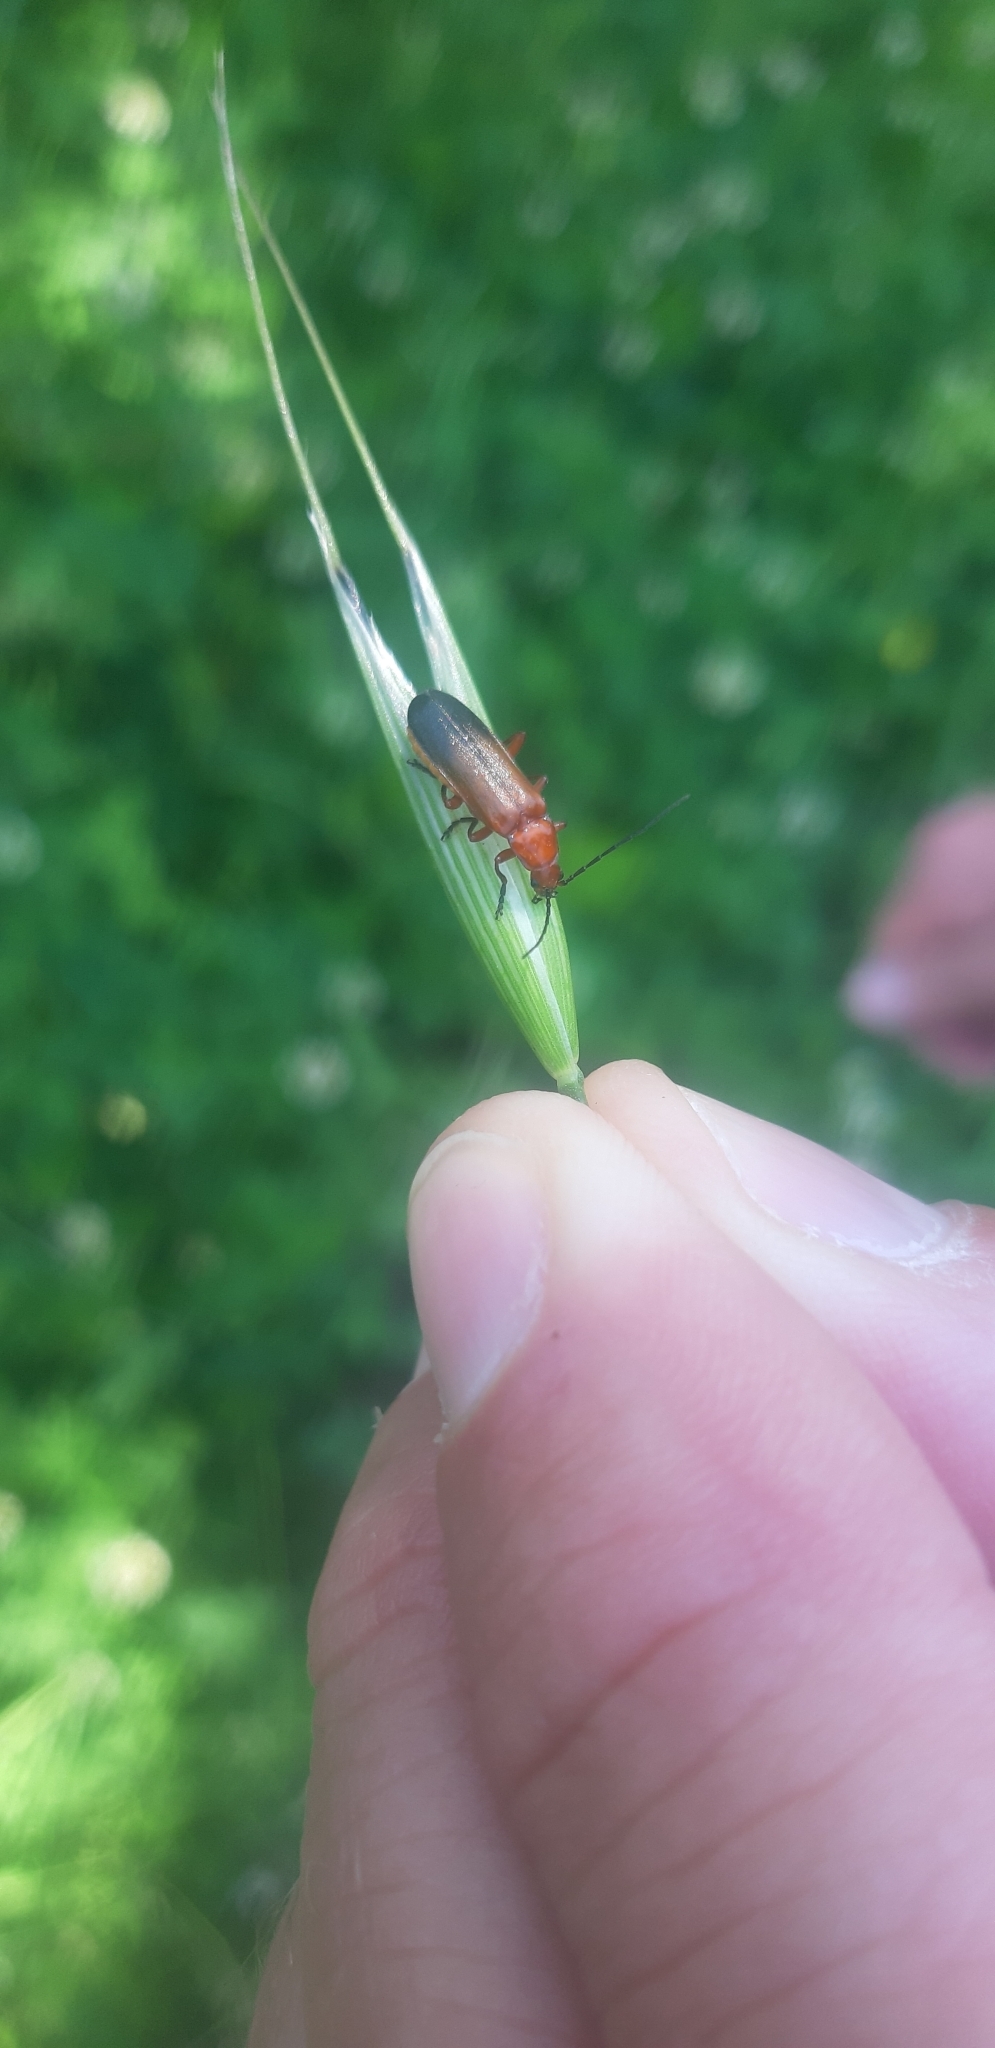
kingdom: Animalia
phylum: Arthropoda
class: Insecta
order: Coleoptera
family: Cantharidae
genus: Rhagonycha
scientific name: Rhagonycha fulva
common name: Common red soldier beetle
